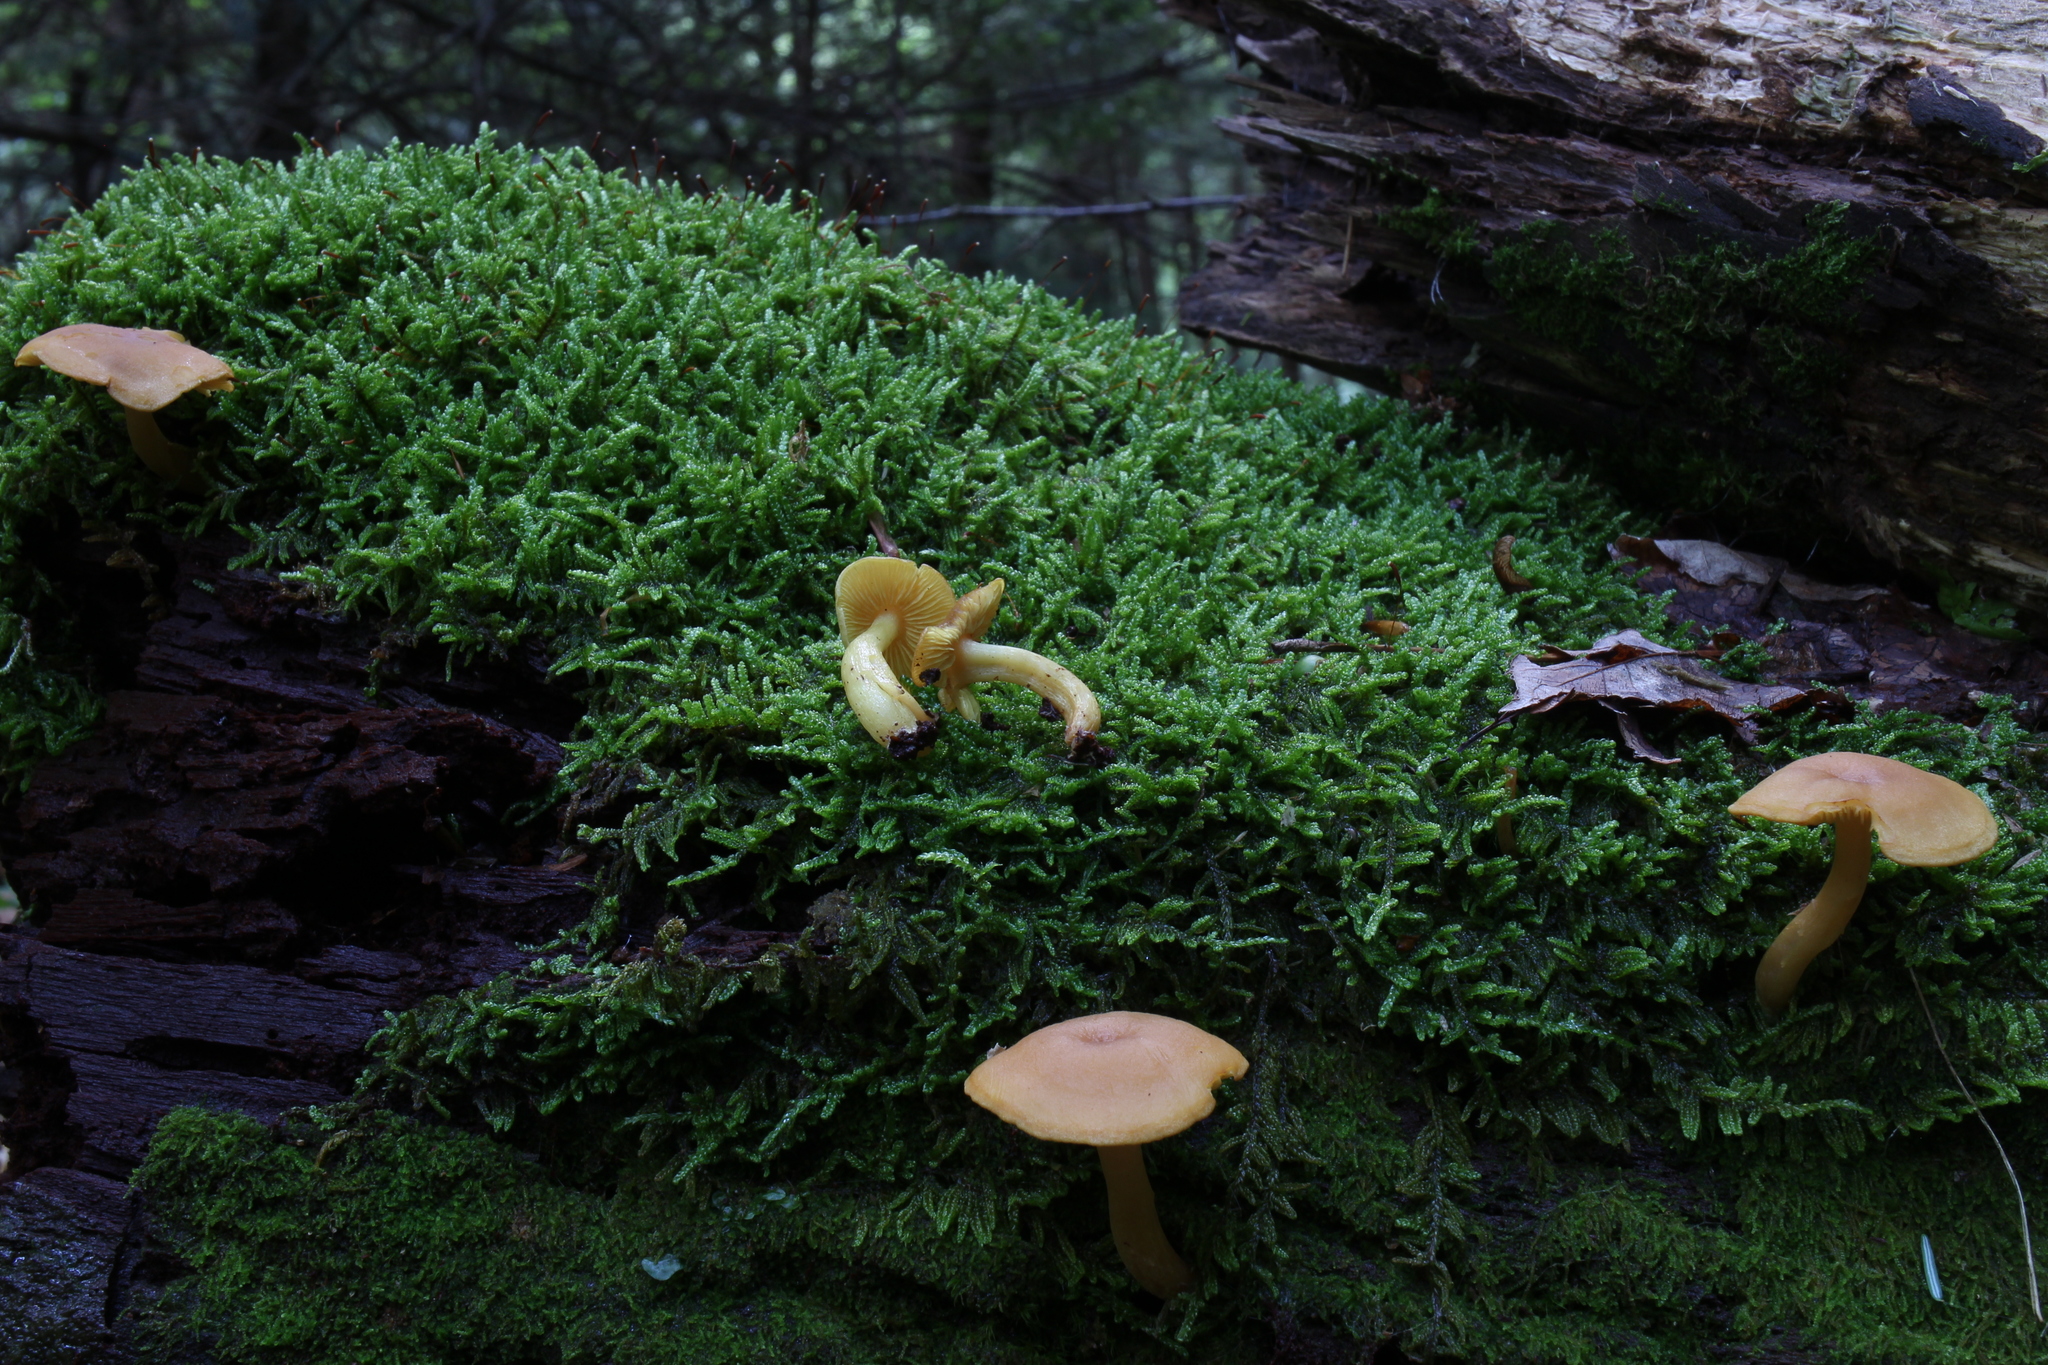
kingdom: Fungi
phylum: Basidiomycota
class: Agaricomycetes
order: Agaricales
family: Callistosporiaceae
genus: Callistosporium
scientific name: Callistosporium luteo-olivaceum
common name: Olive lute
